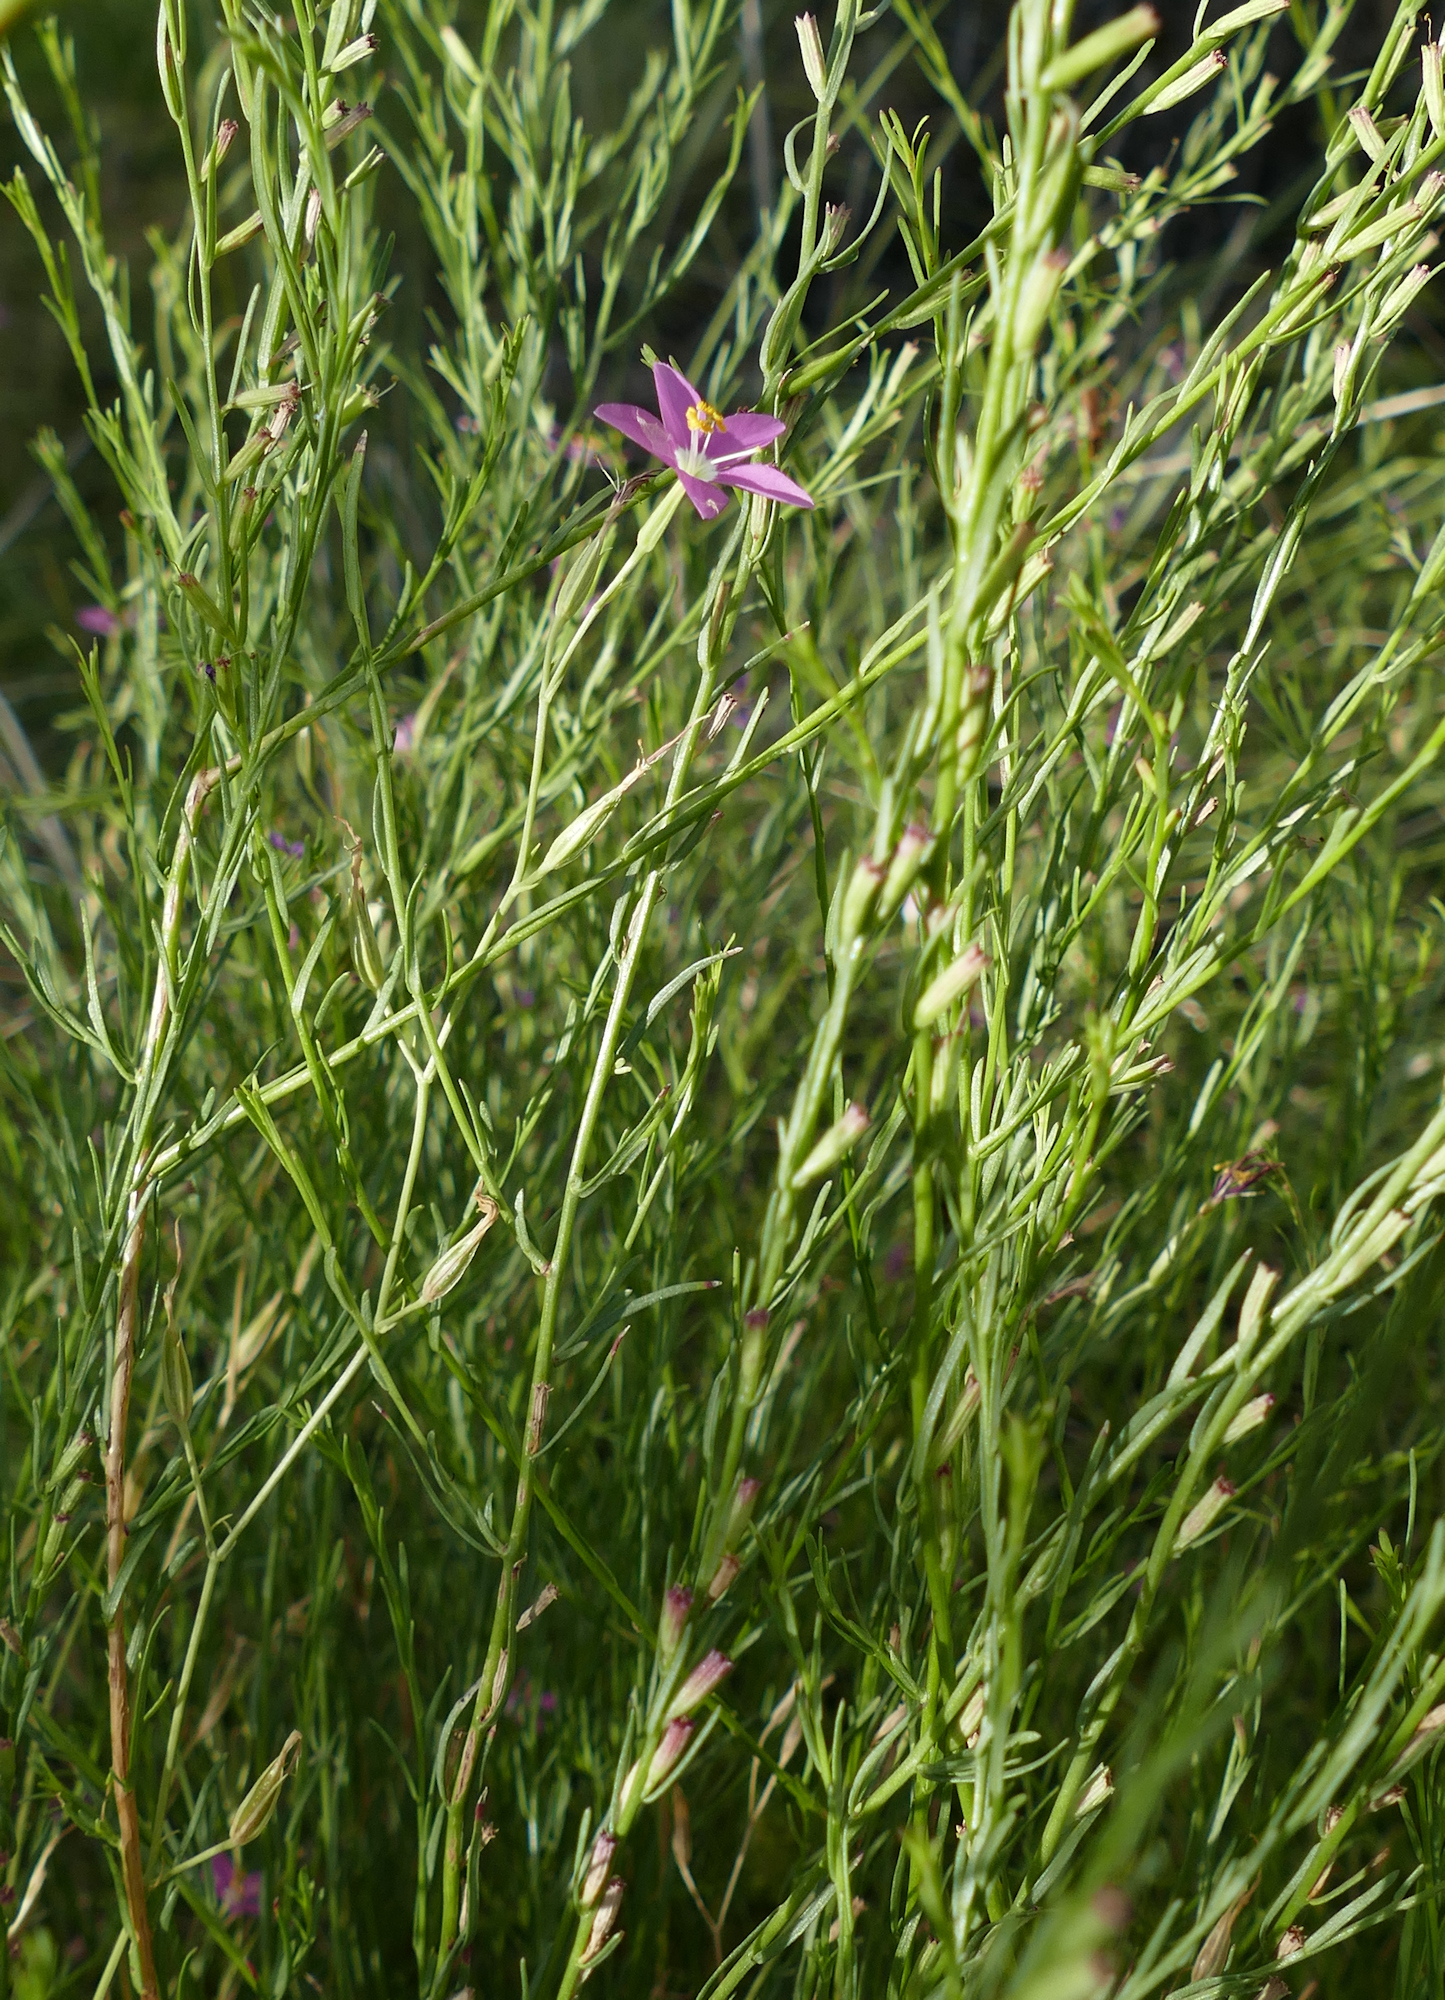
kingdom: Plantae
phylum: Tracheophyta
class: Magnoliopsida
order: Gentianales
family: Gentianaceae
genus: Zeltnera
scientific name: Zeltnera arizonica
